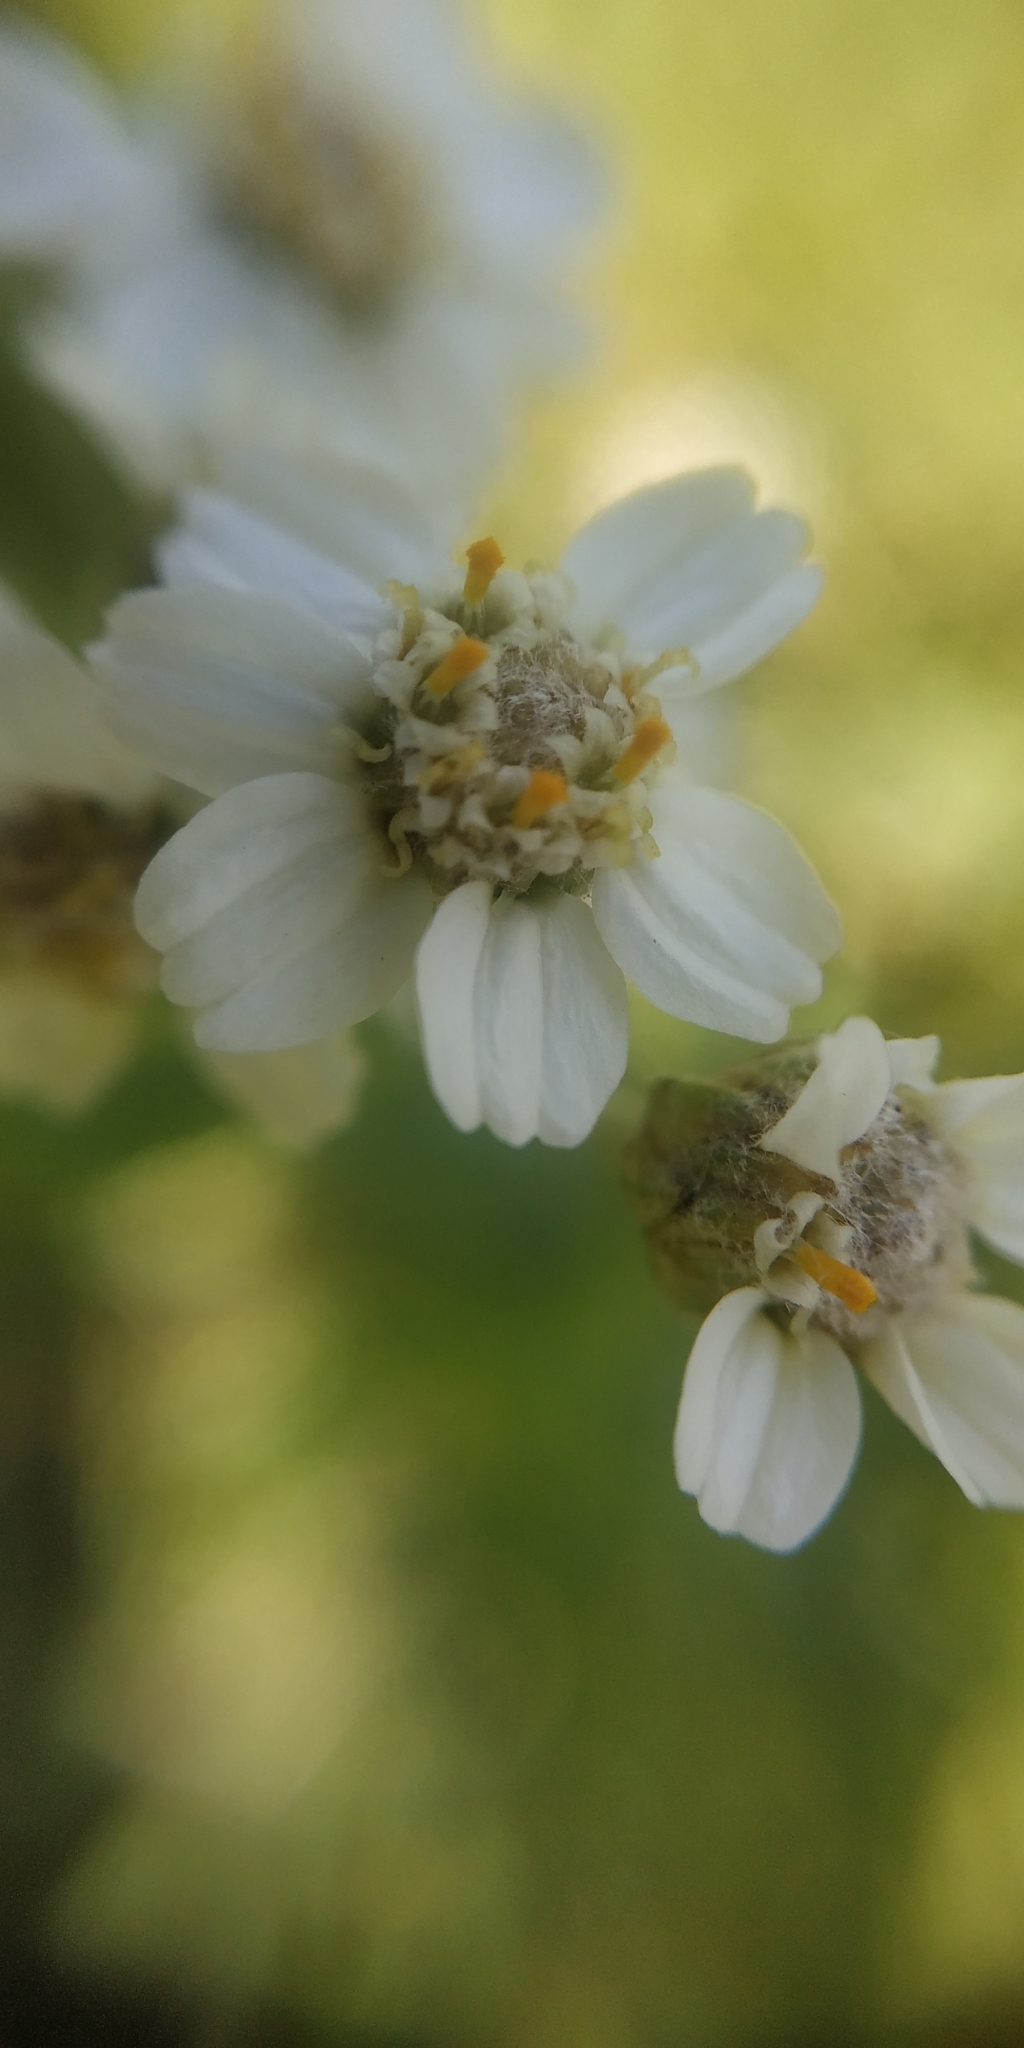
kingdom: Plantae
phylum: Tracheophyta
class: Magnoliopsida
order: Asterales
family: Asteraceae
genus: Achillea
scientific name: Achillea salicifolia
